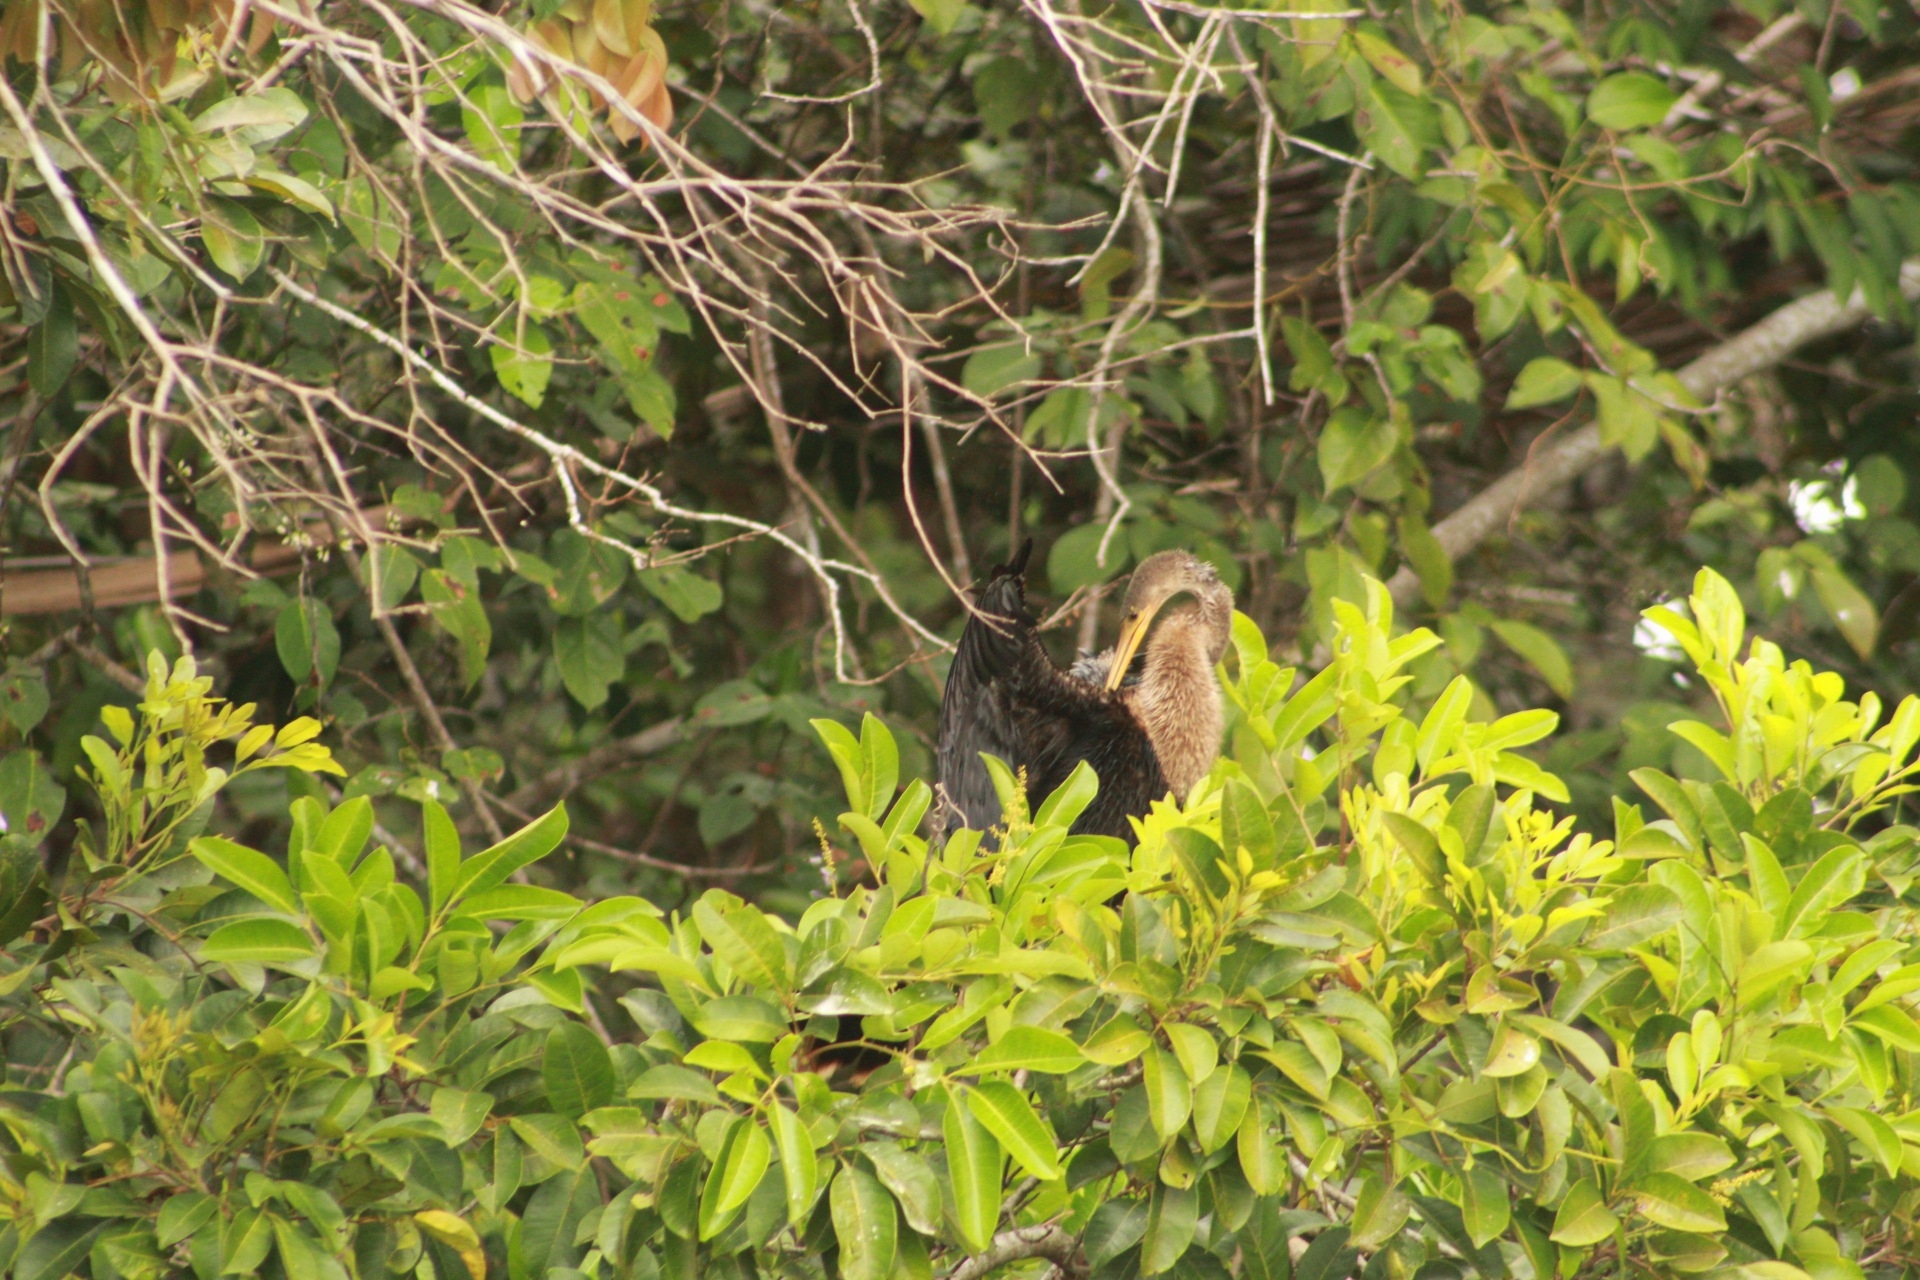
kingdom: Animalia
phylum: Chordata
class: Aves
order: Suliformes
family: Anhingidae
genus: Anhinga
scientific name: Anhinga anhinga
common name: Anhinga
